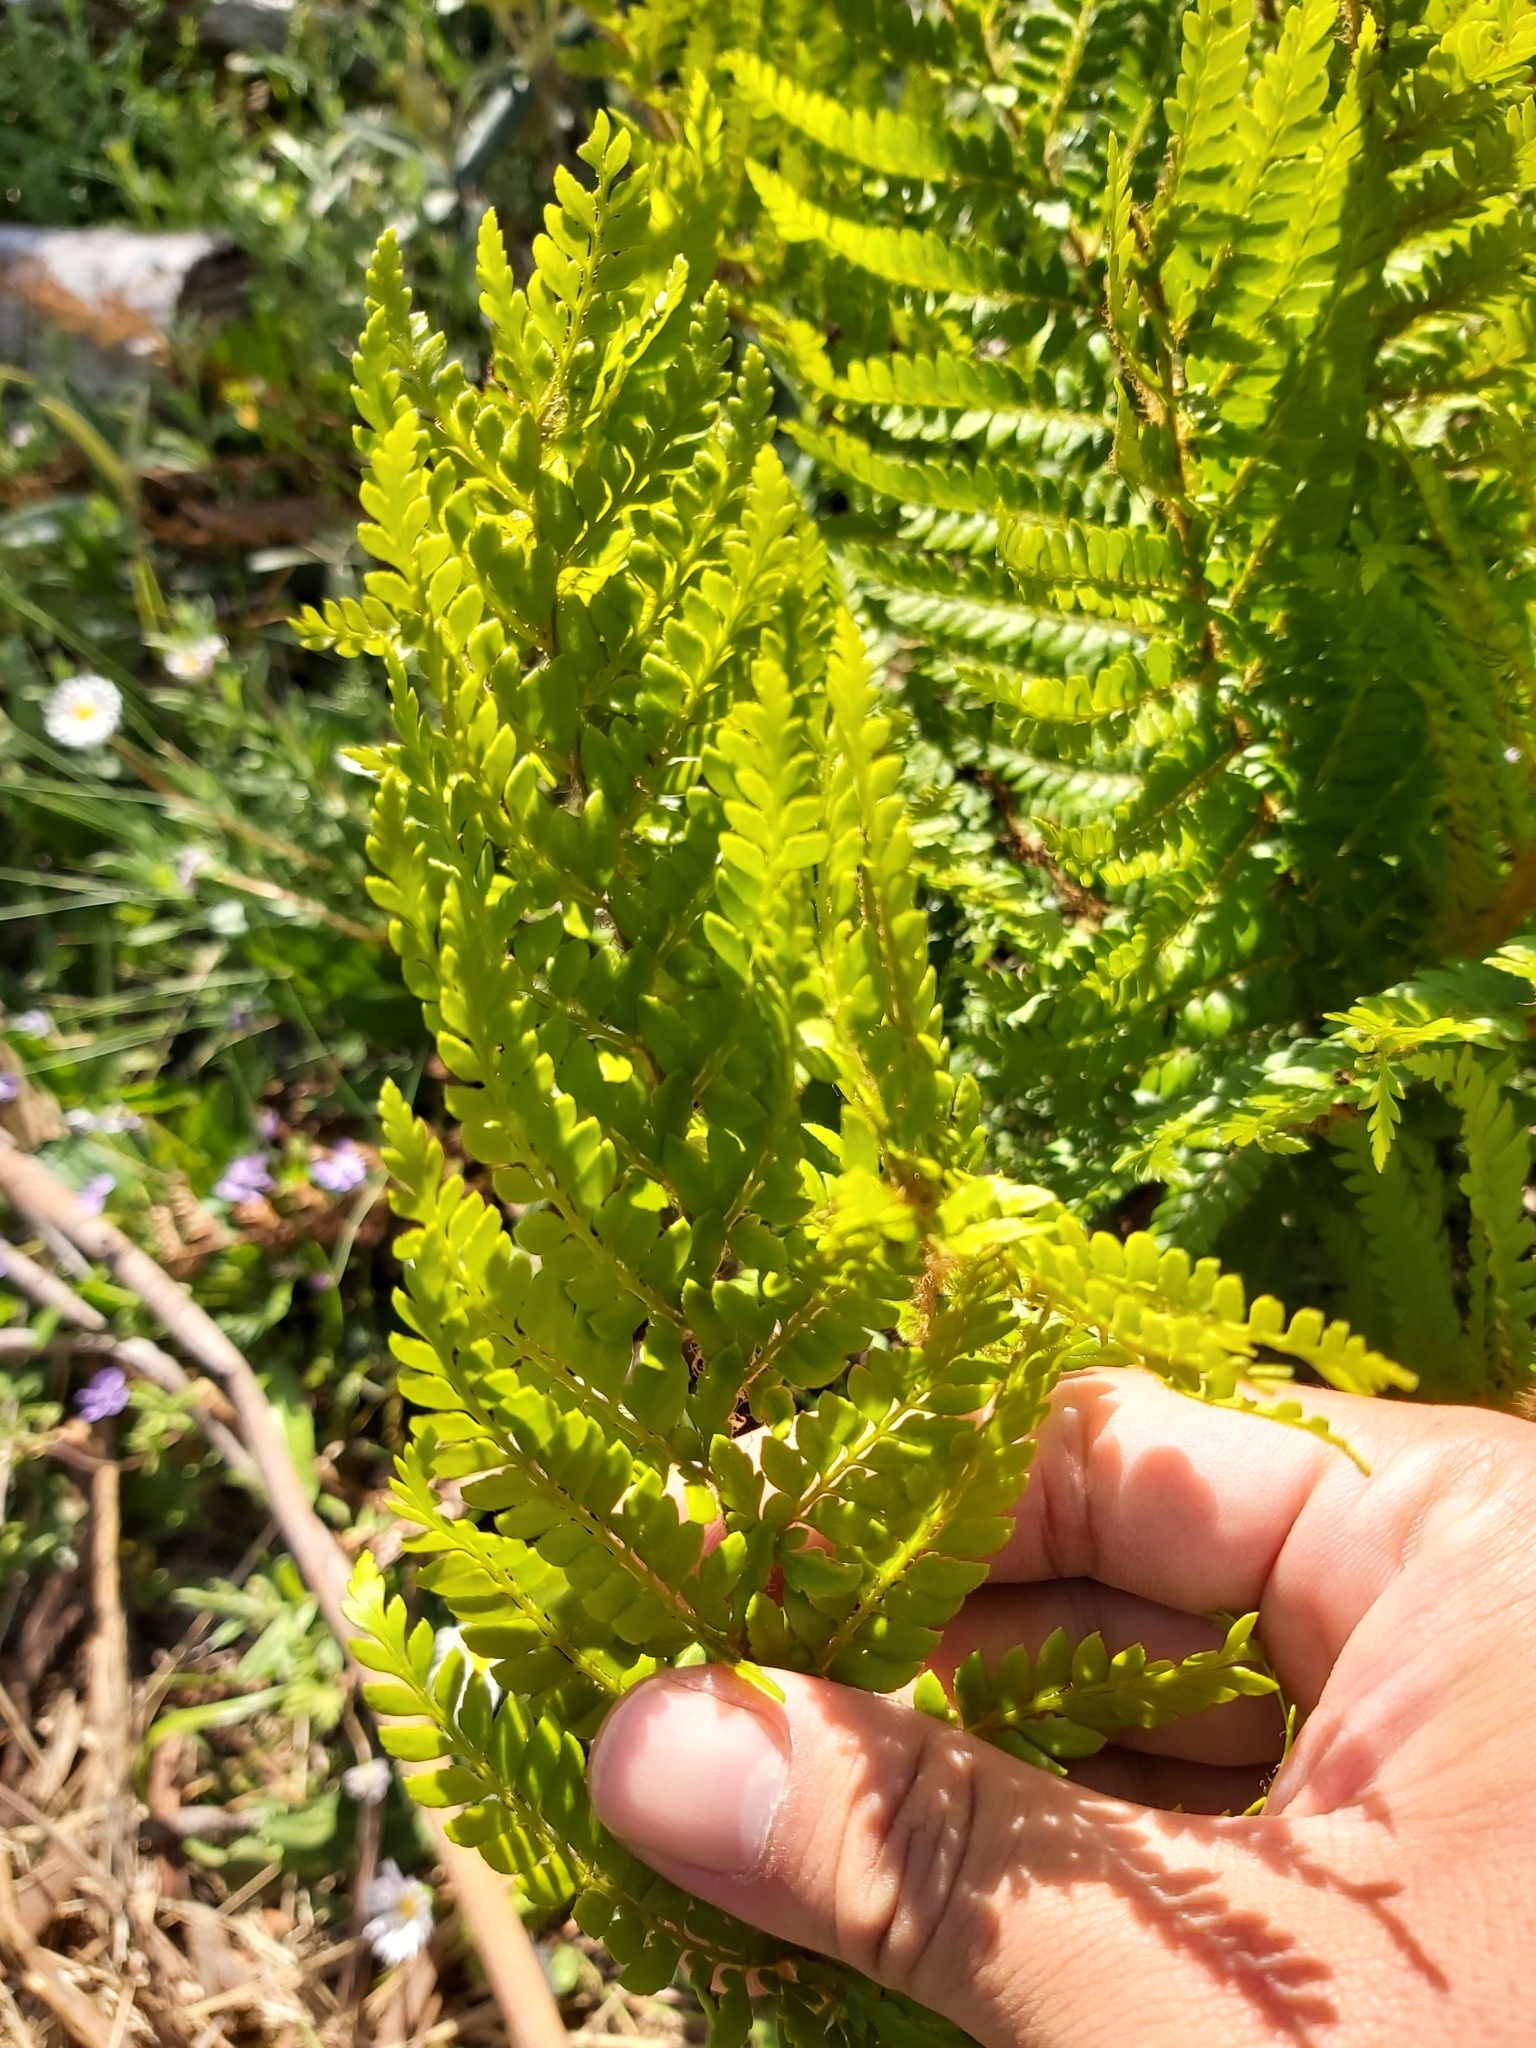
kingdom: Plantae
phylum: Tracheophyta
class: Polypodiopsida
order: Polypodiales
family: Dryopteridaceae
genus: Polystichum
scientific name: Polystichum proliferum
